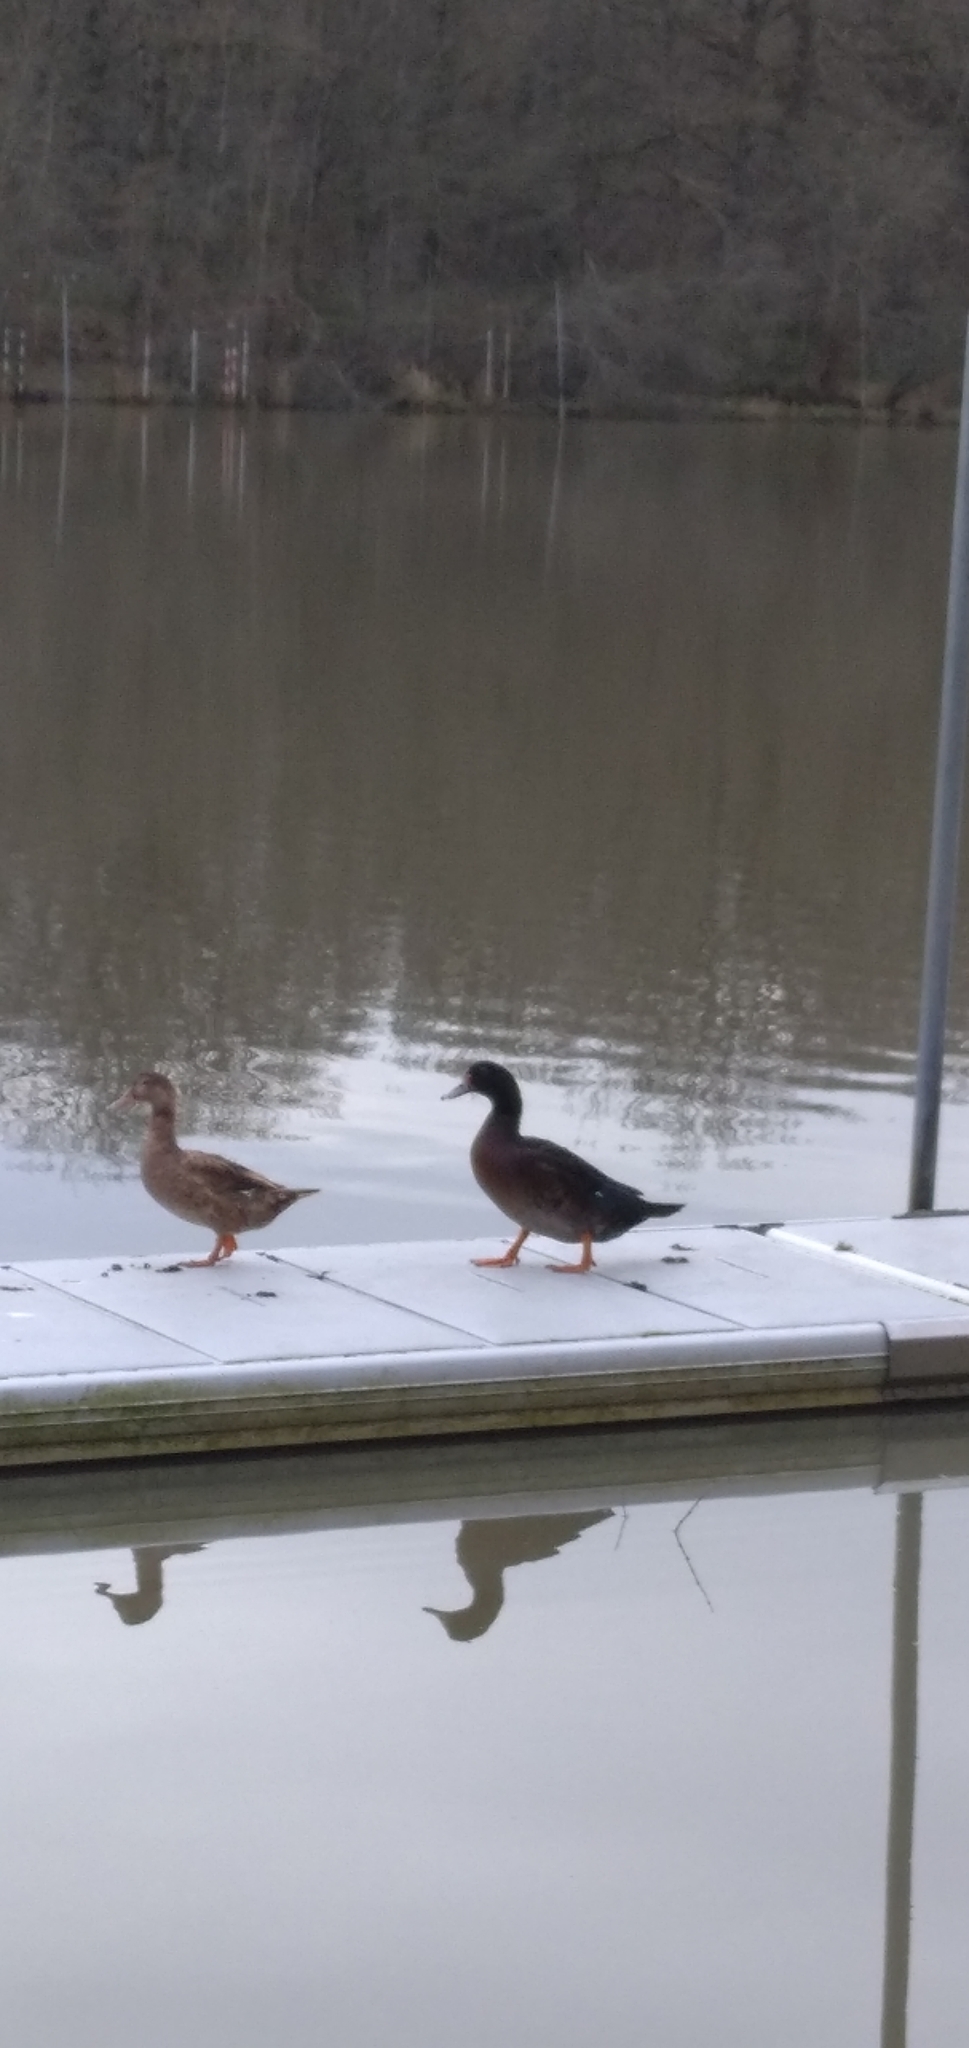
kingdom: Animalia
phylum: Chordata
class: Aves
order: Anseriformes
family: Anatidae
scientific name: Anatidae
